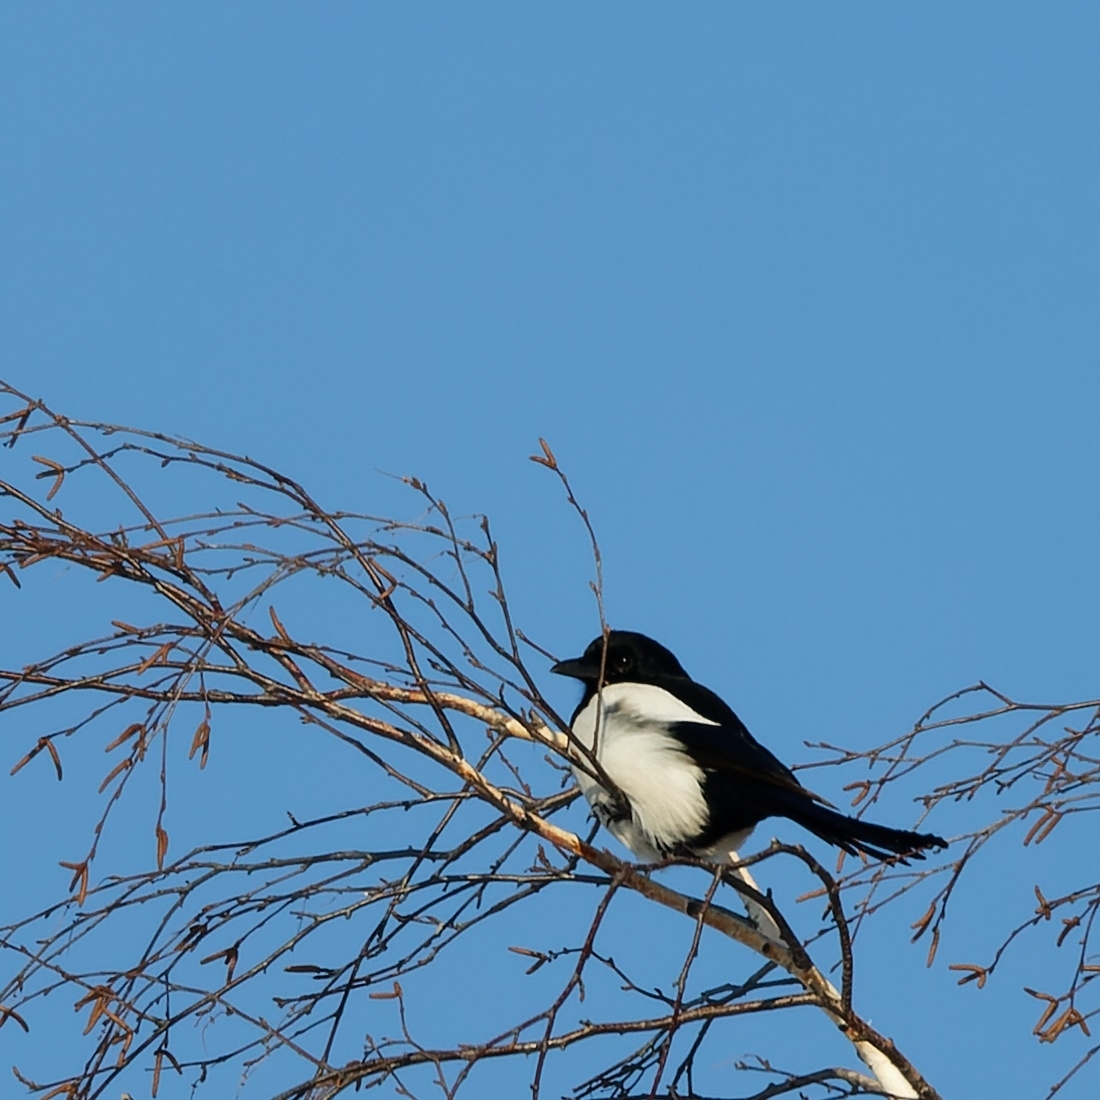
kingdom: Animalia
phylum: Chordata
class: Aves
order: Passeriformes
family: Corvidae
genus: Pica
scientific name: Pica pica
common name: Eurasian magpie
